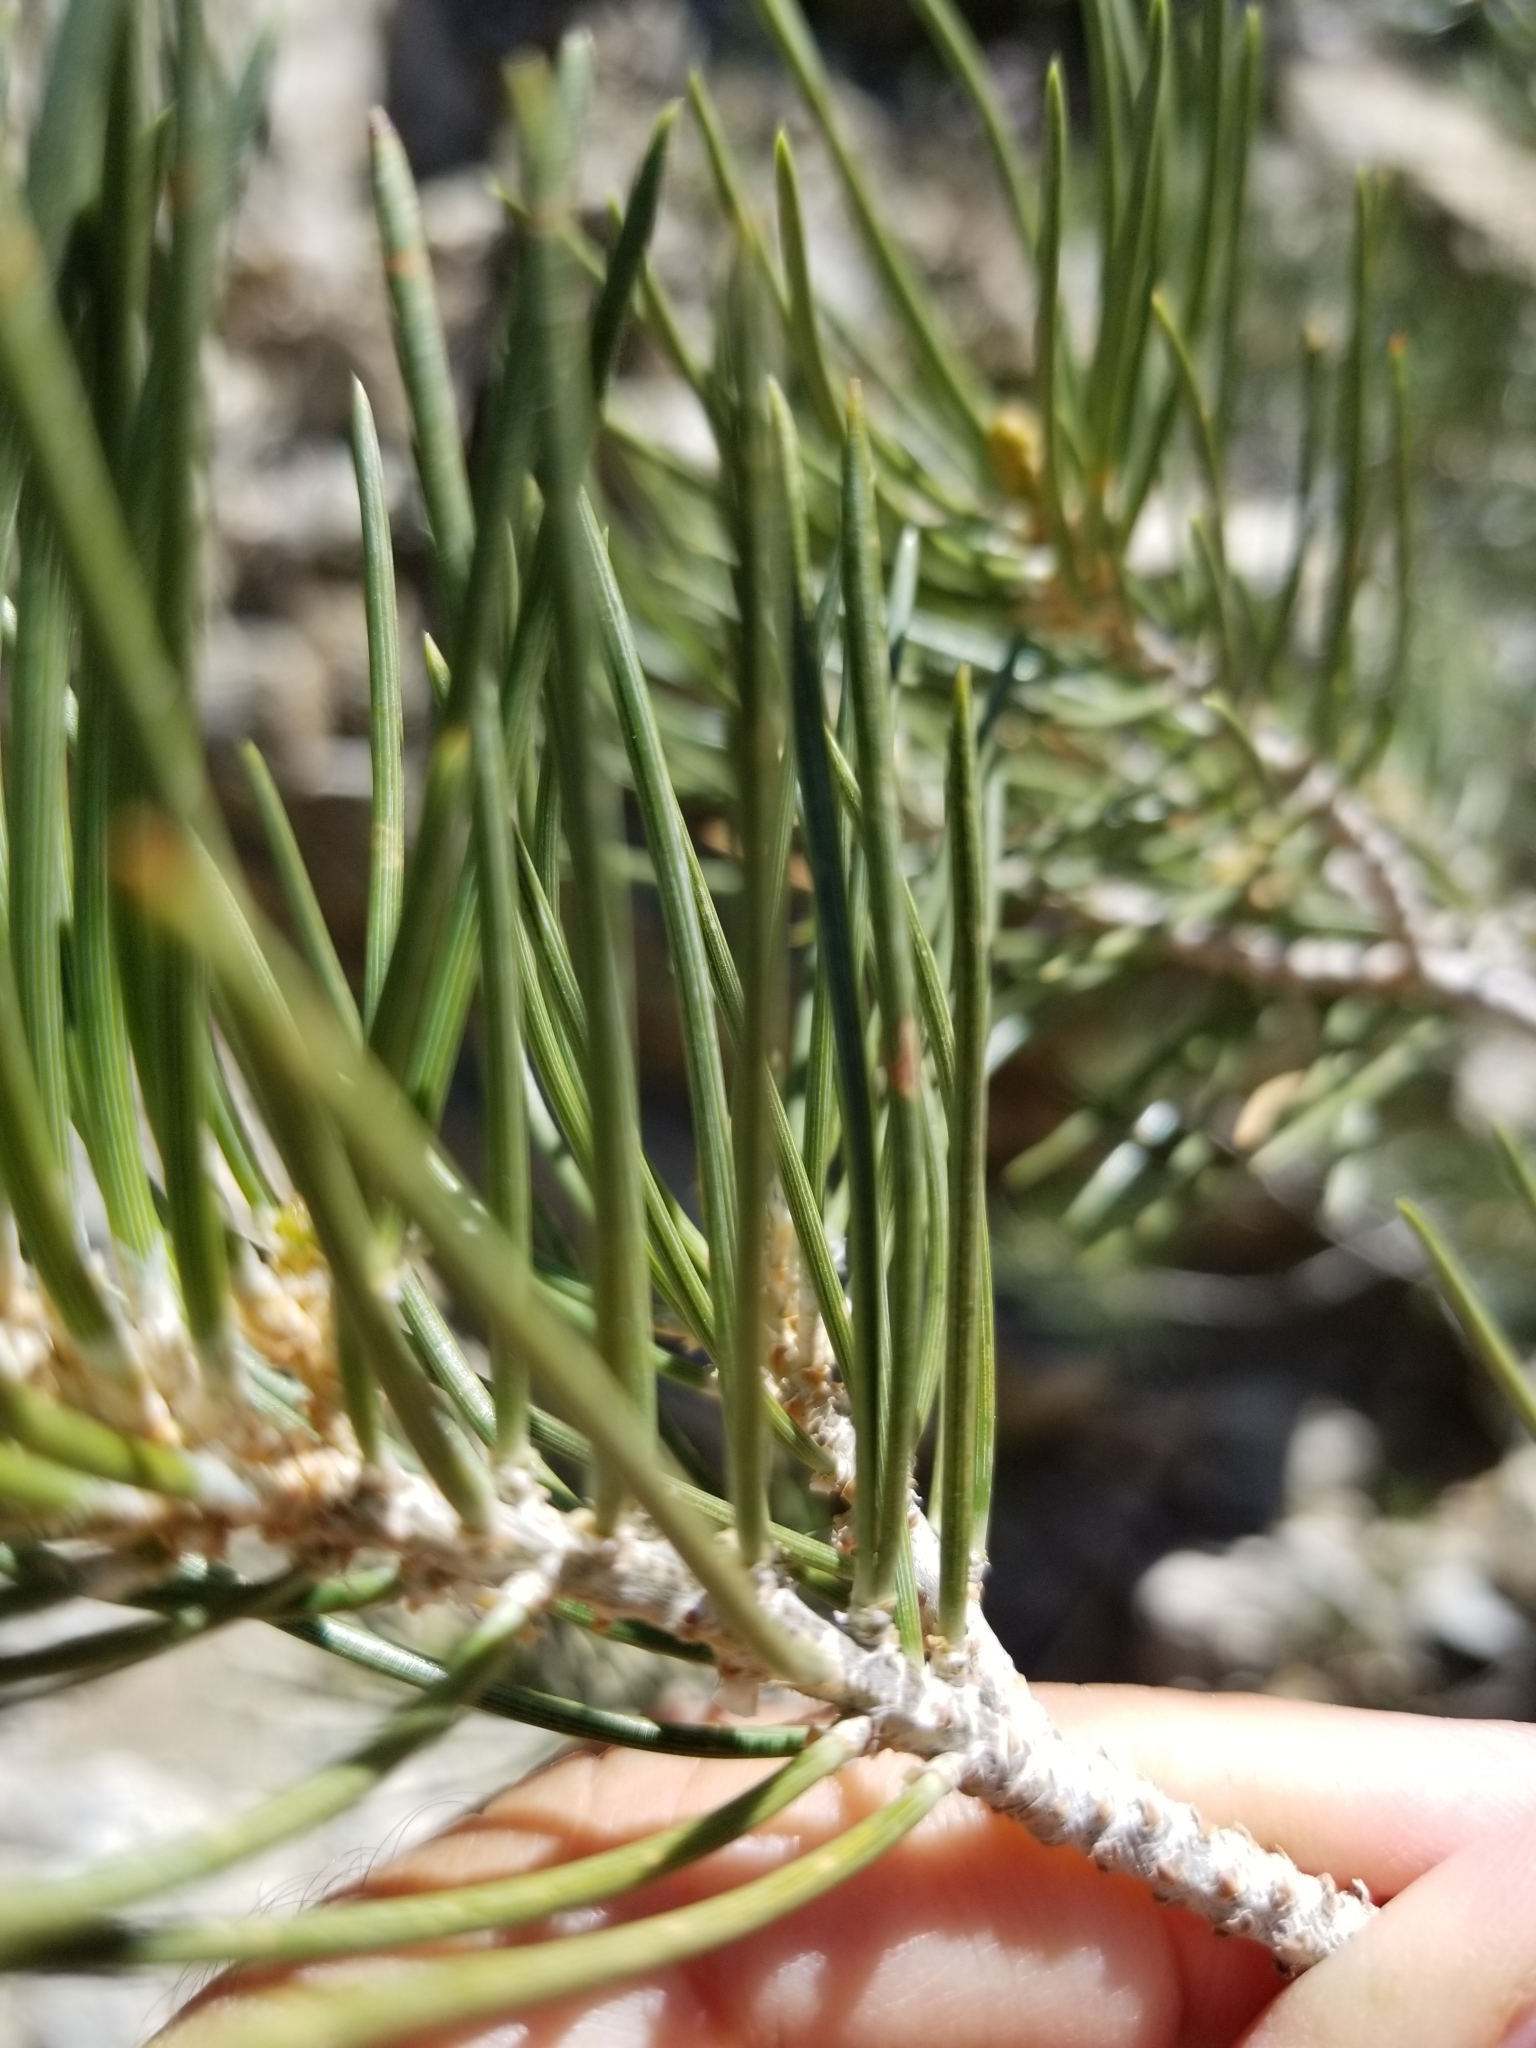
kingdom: Plantae
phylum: Tracheophyta
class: Pinopsida
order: Pinales
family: Pinaceae
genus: Pinus
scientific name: Pinus monophylla
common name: One-leaved nut pine
